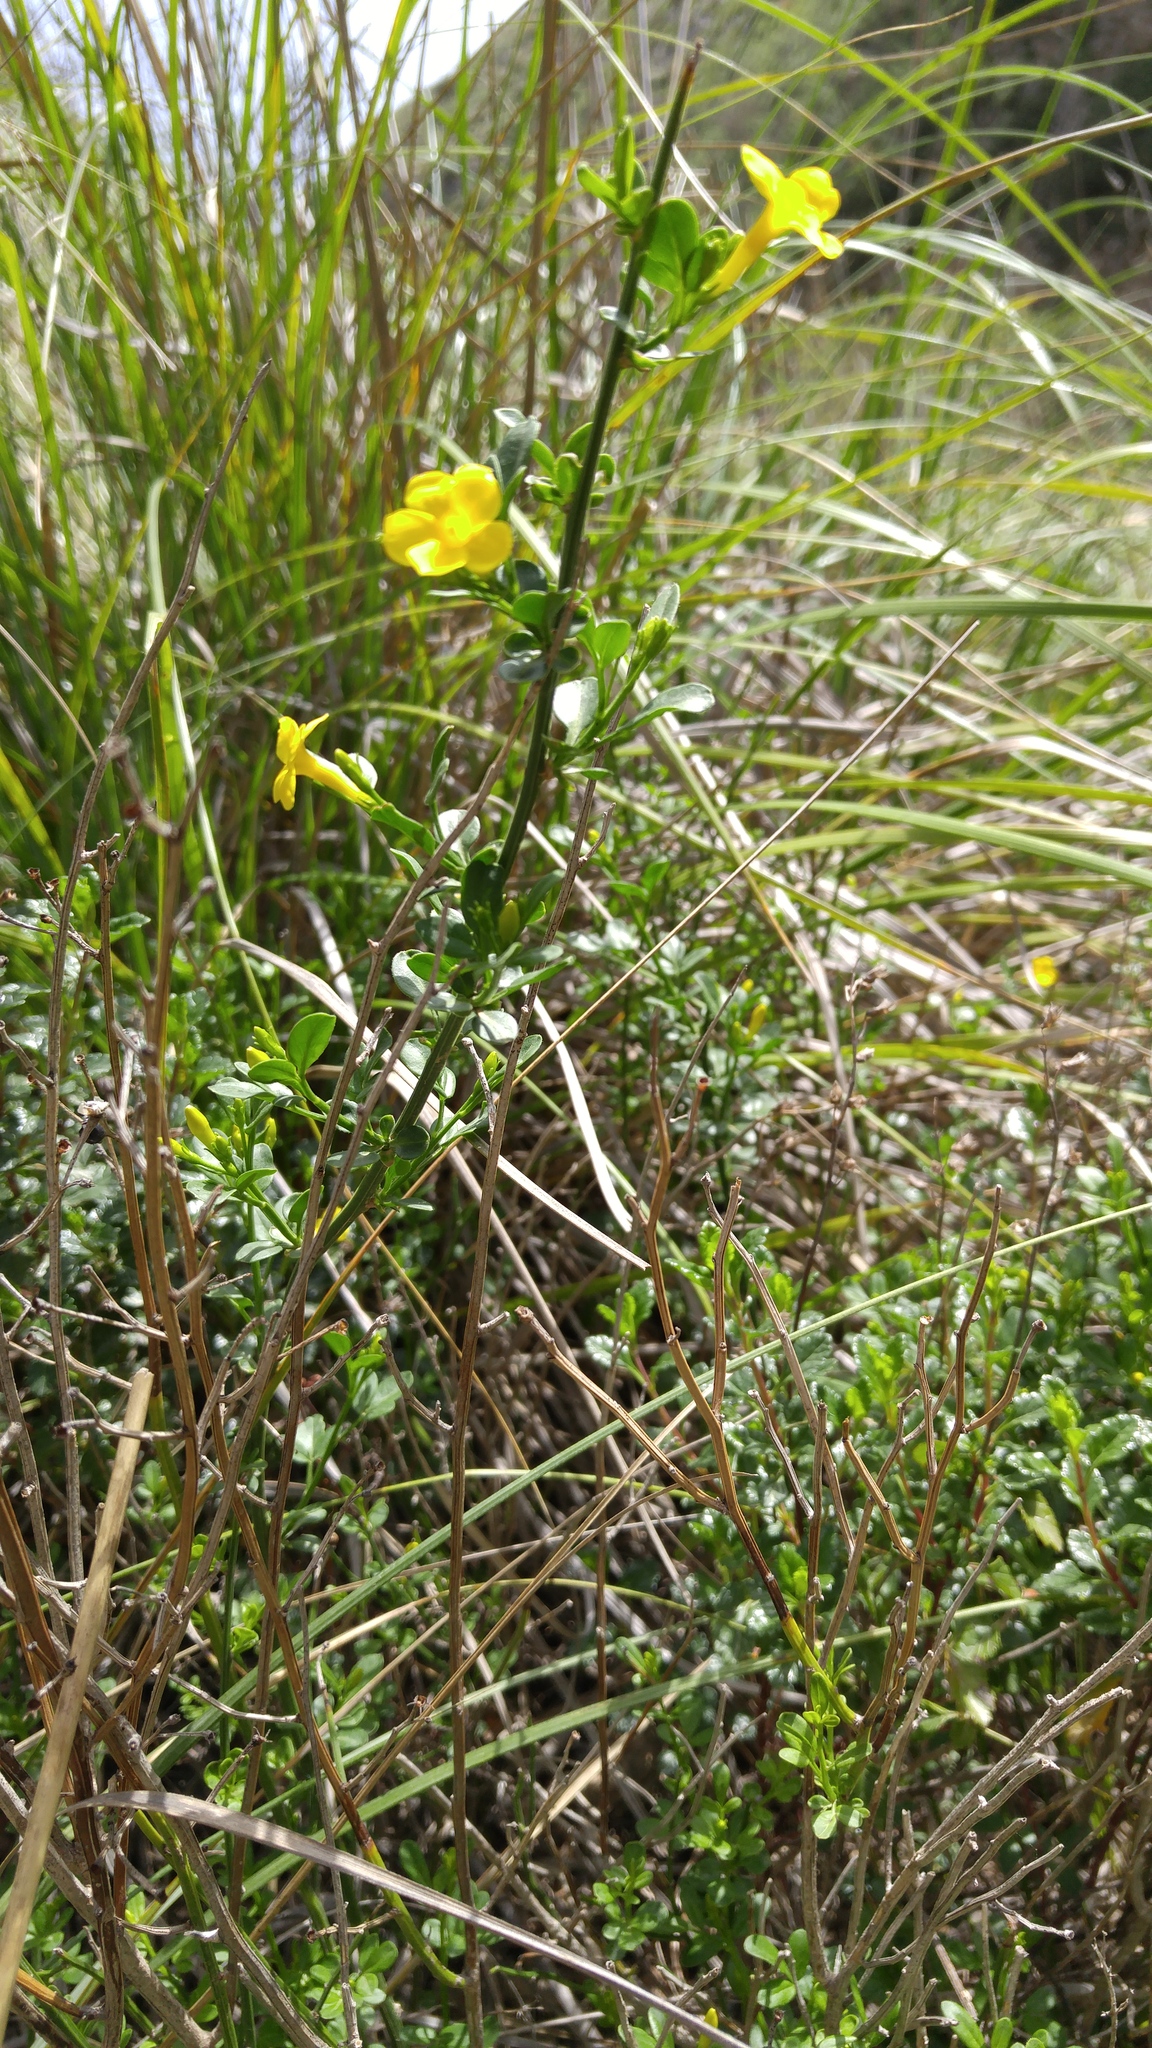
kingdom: Plantae
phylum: Tracheophyta
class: Magnoliopsida
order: Lamiales
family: Oleaceae
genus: Chrysojasminum
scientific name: Chrysojasminum fruticans
